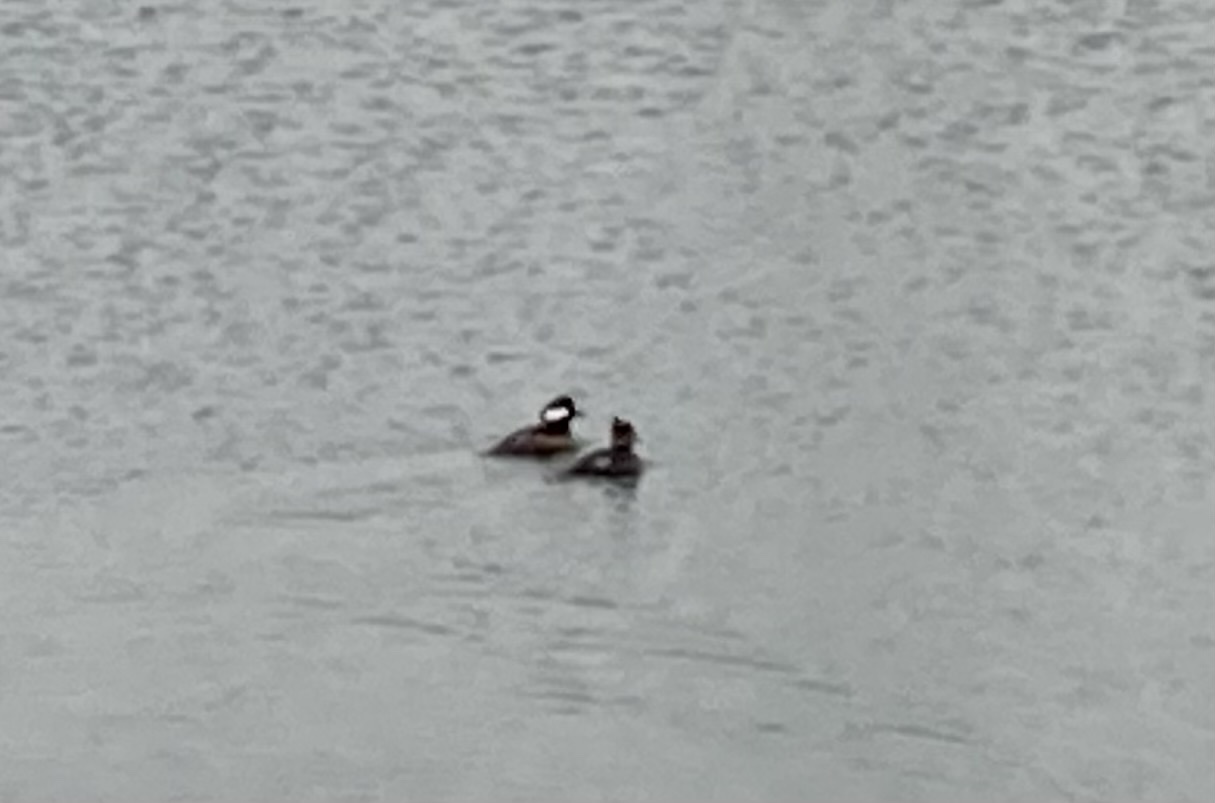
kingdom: Animalia
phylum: Chordata
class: Aves
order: Anseriformes
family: Anatidae
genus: Lophodytes
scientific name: Lophodytes cucullatus
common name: Hooded merganser
